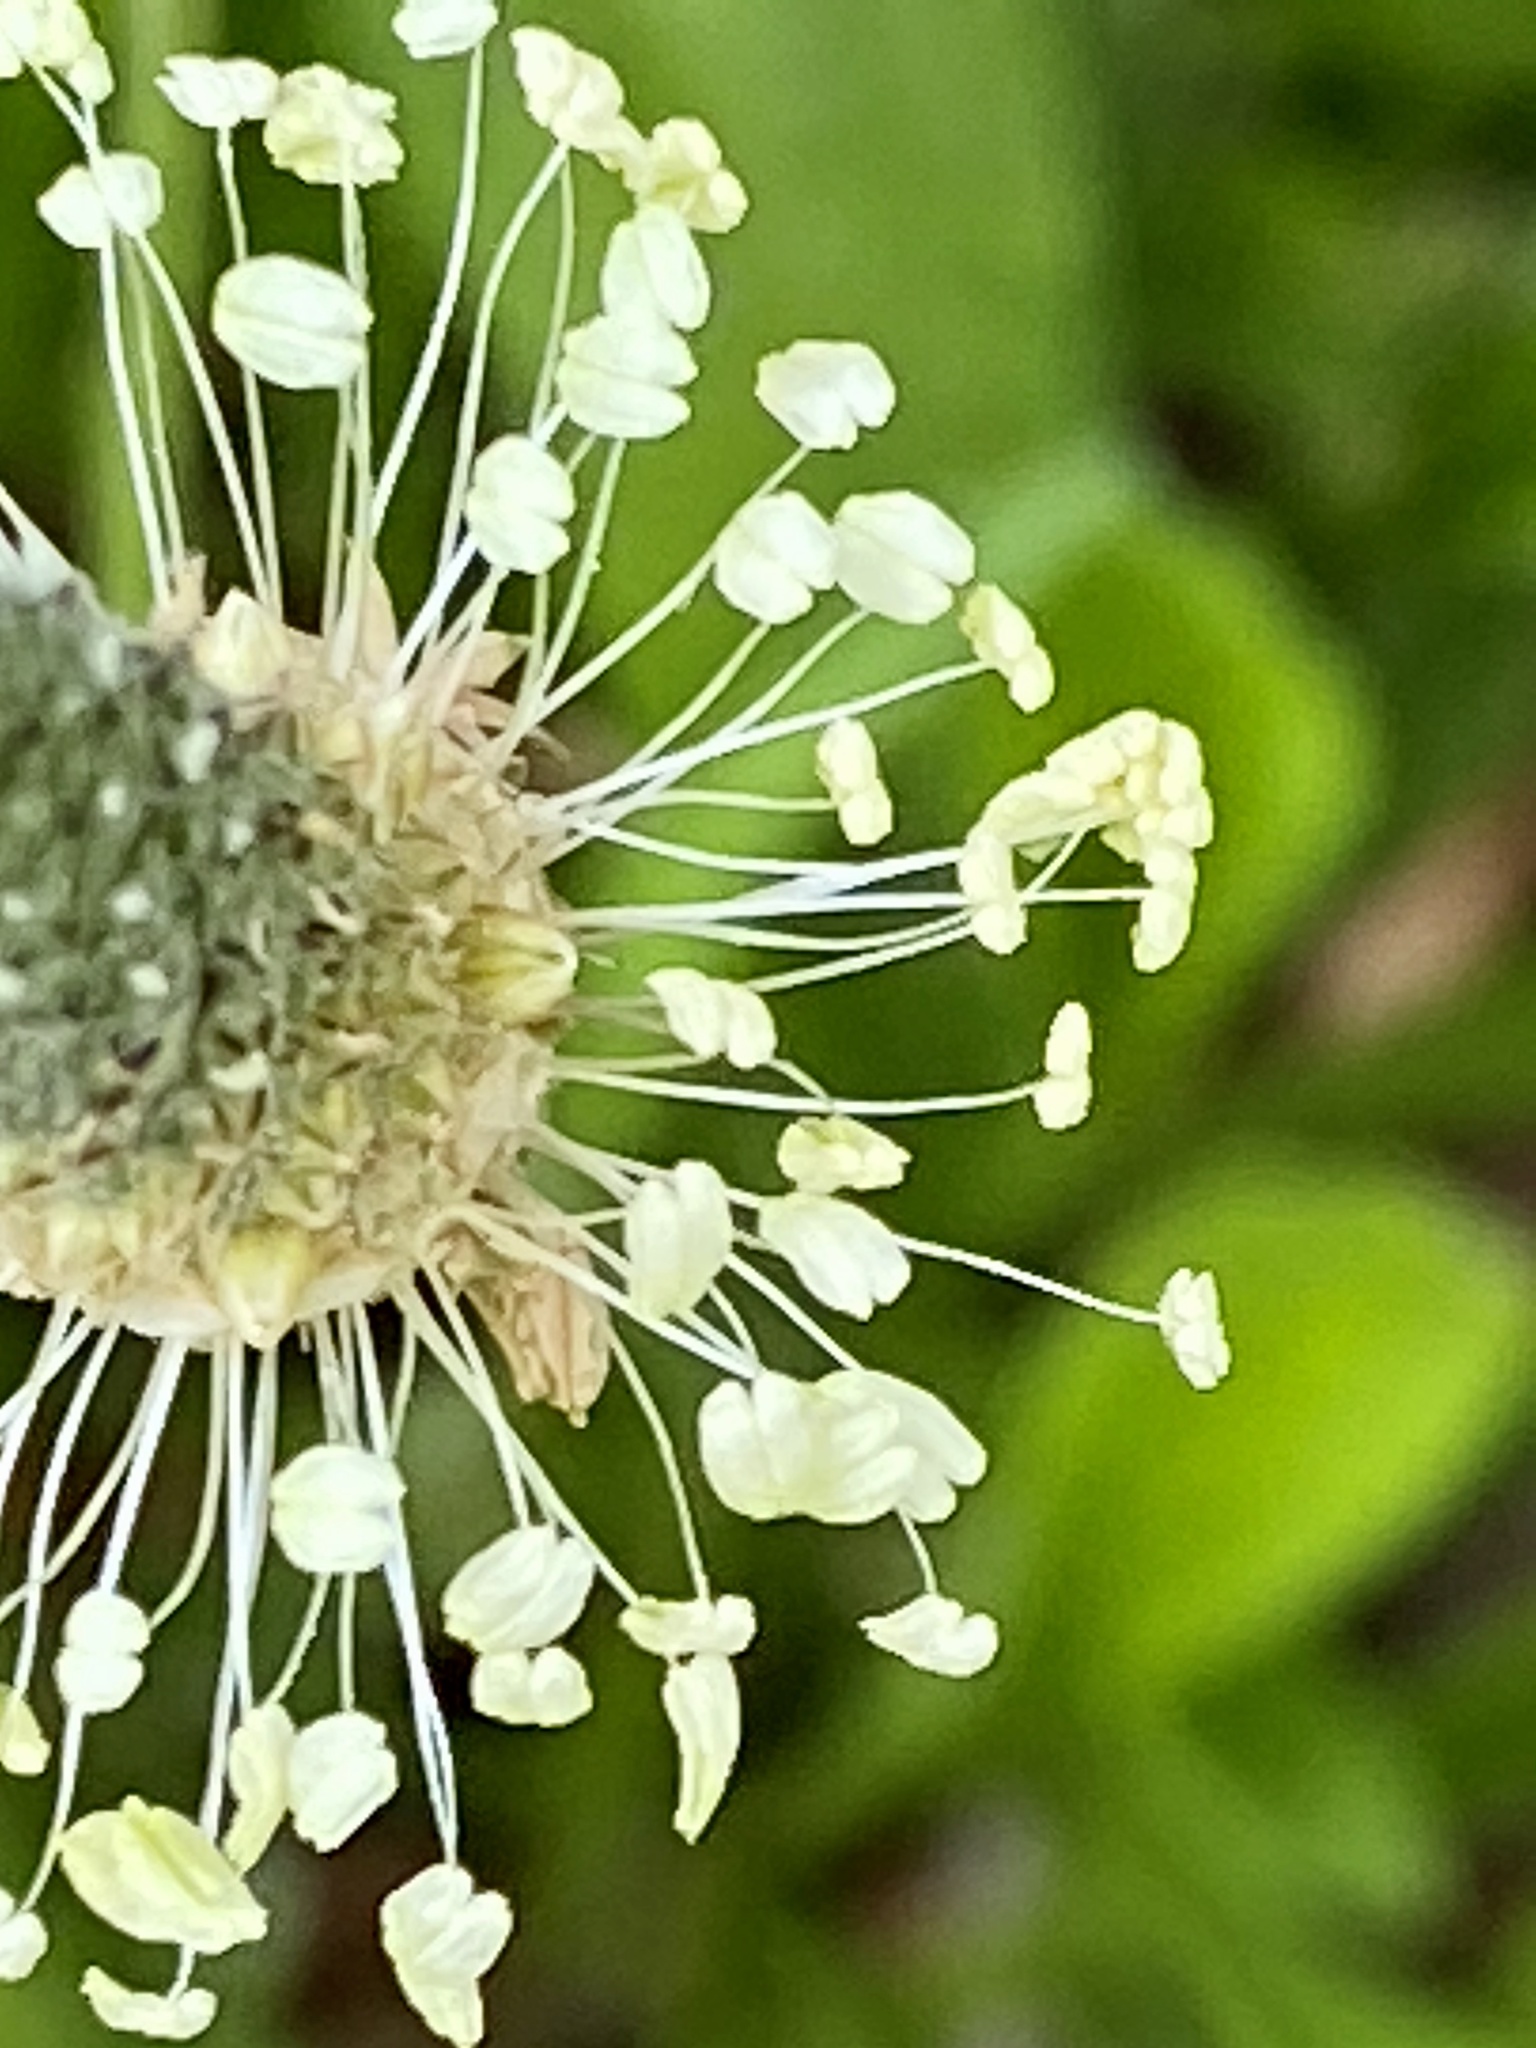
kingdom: Plantae
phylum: Tracheophyta
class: Magnoliopsida
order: Lamiales
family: Plantaginaceae
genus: Plantago
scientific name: Plantago lanceolata
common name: Ribwort plantain
